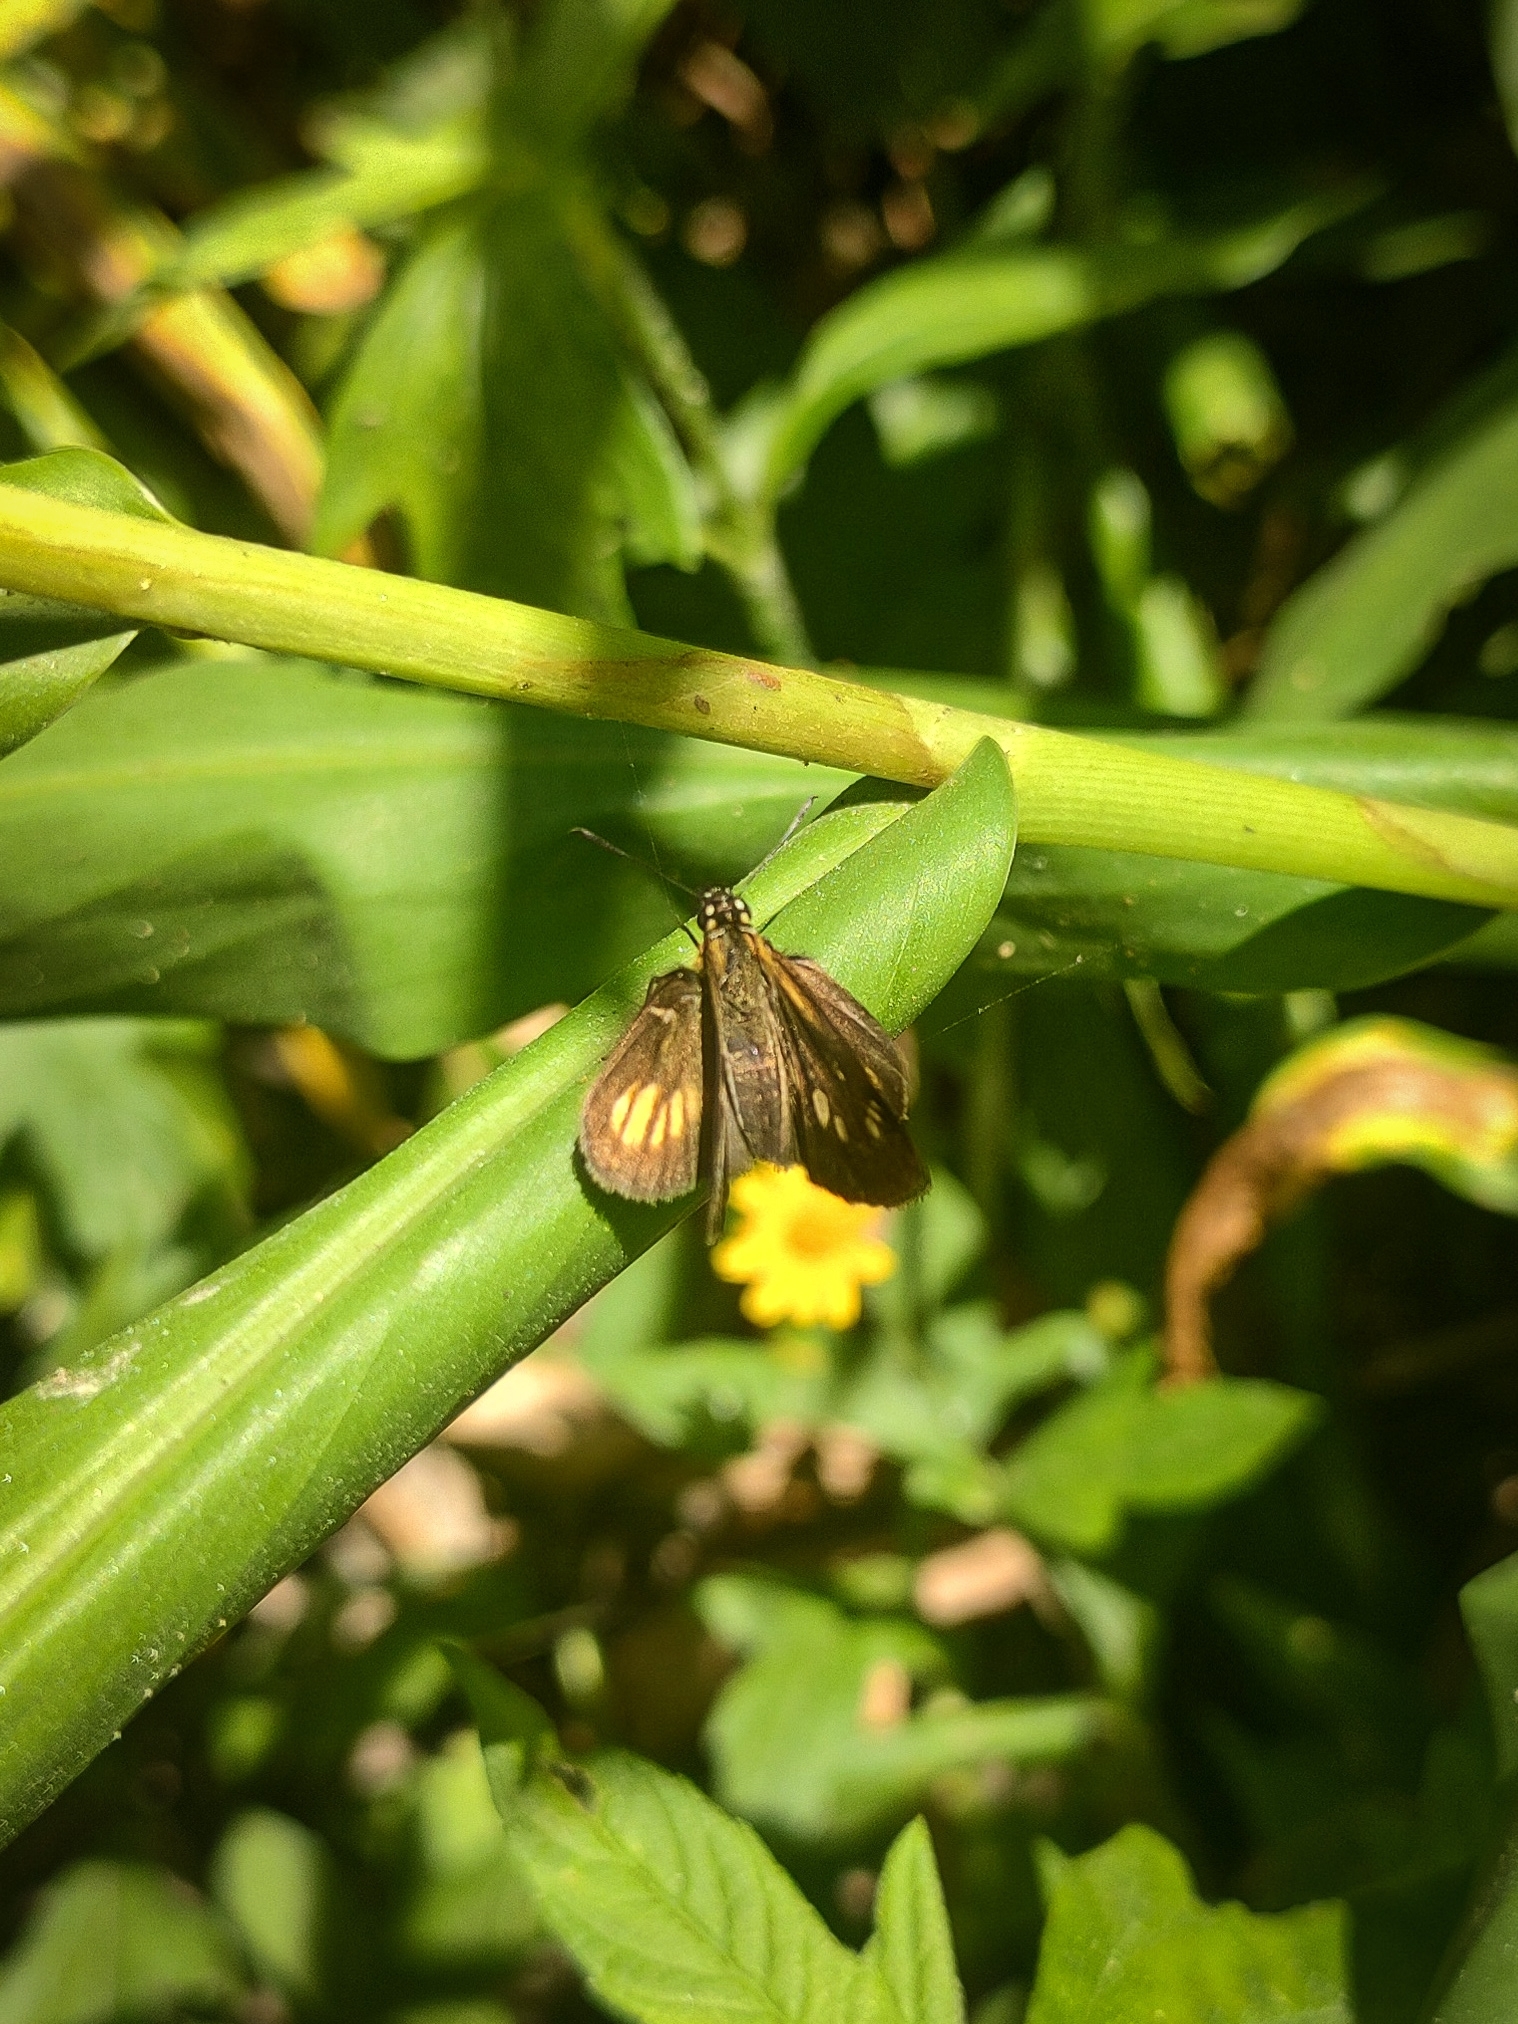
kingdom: Animalia
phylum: Arthropoda
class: Insecta
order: Lepidoptera
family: Hesperiidae
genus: Vehilius
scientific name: Vehilius clavicula
